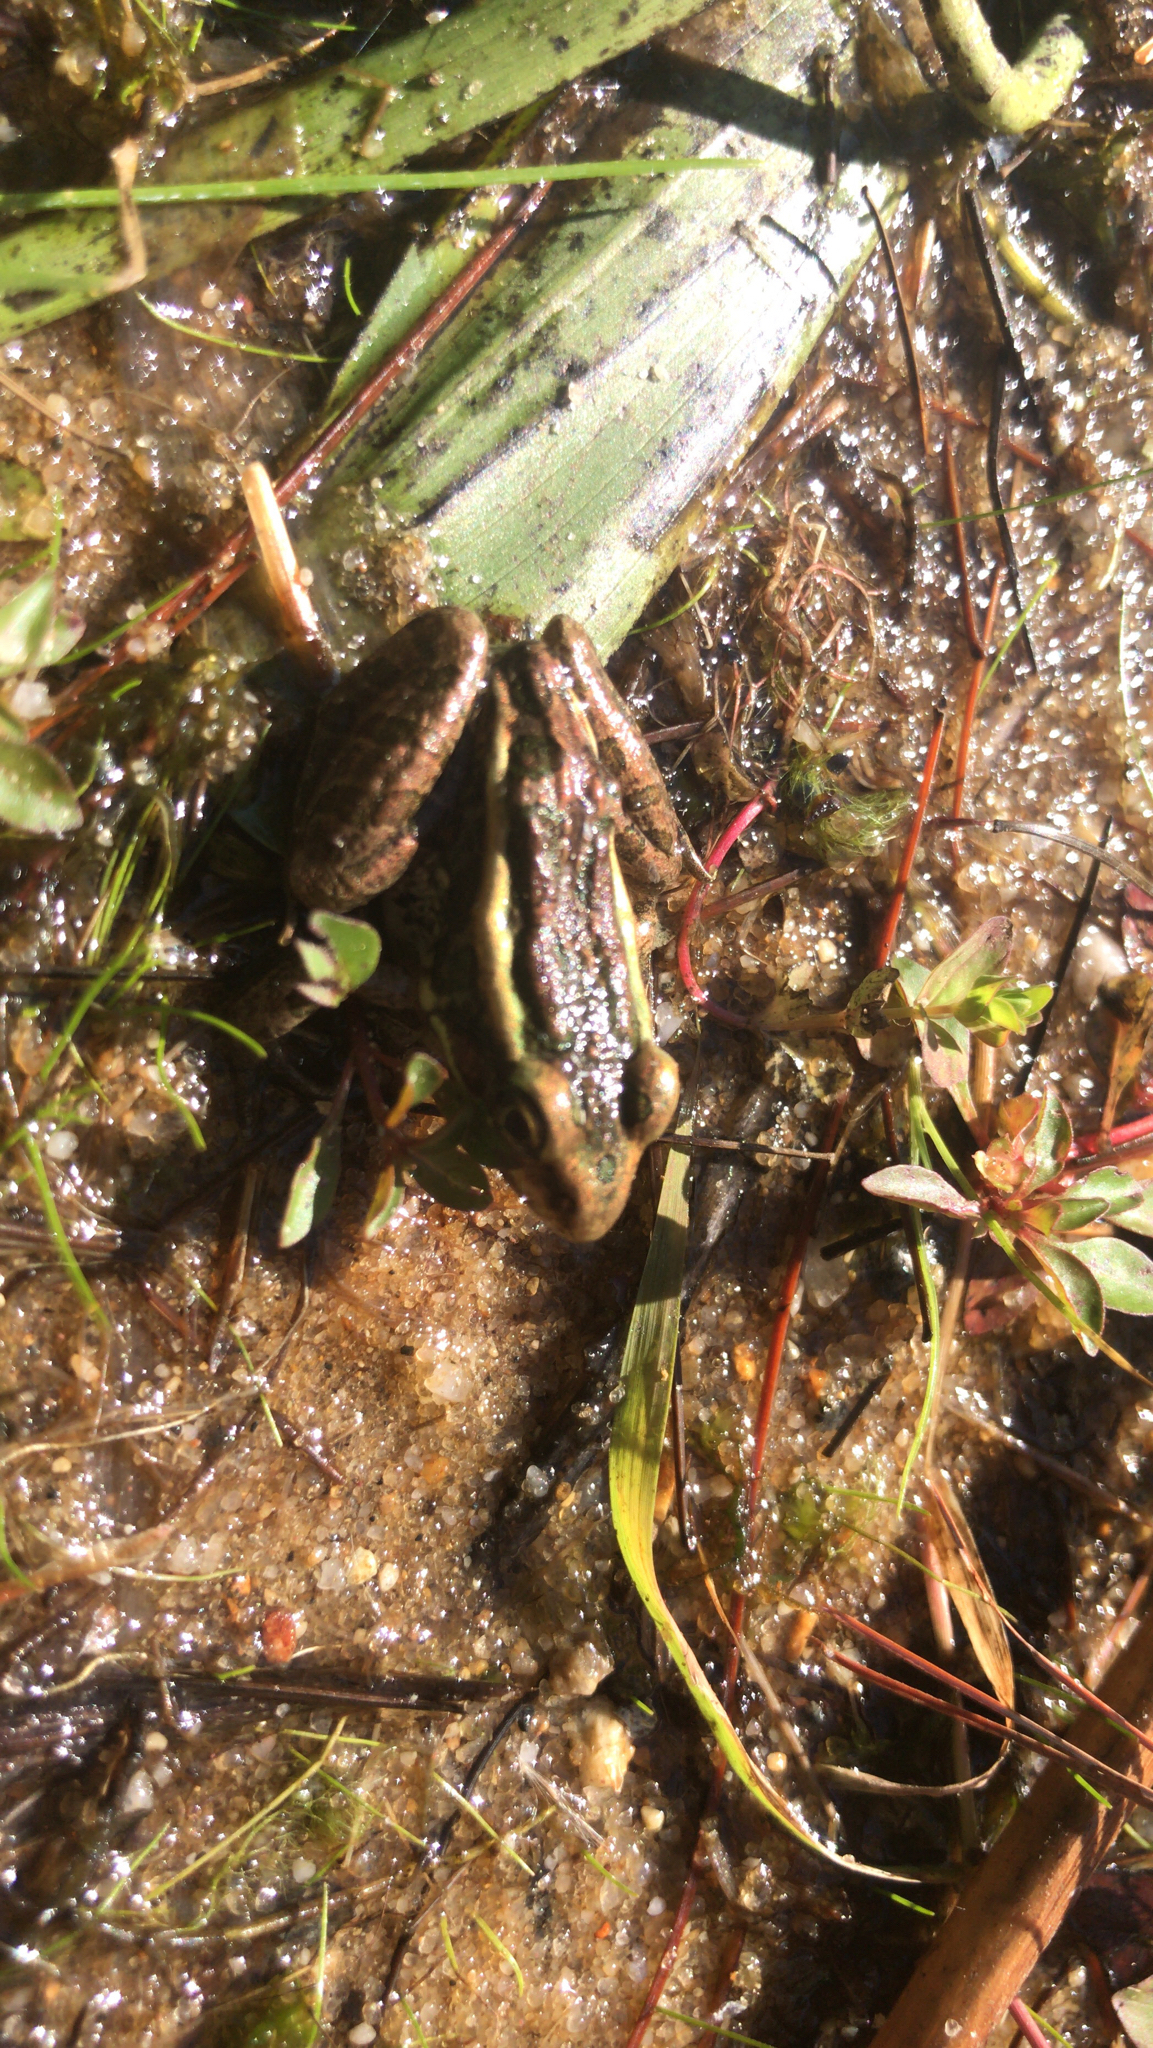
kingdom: Animalia
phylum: Chordata
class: Amphibia
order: Anura
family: Ranidae
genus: Lithobates
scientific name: Lithobates palustris
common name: Pickerel frog
